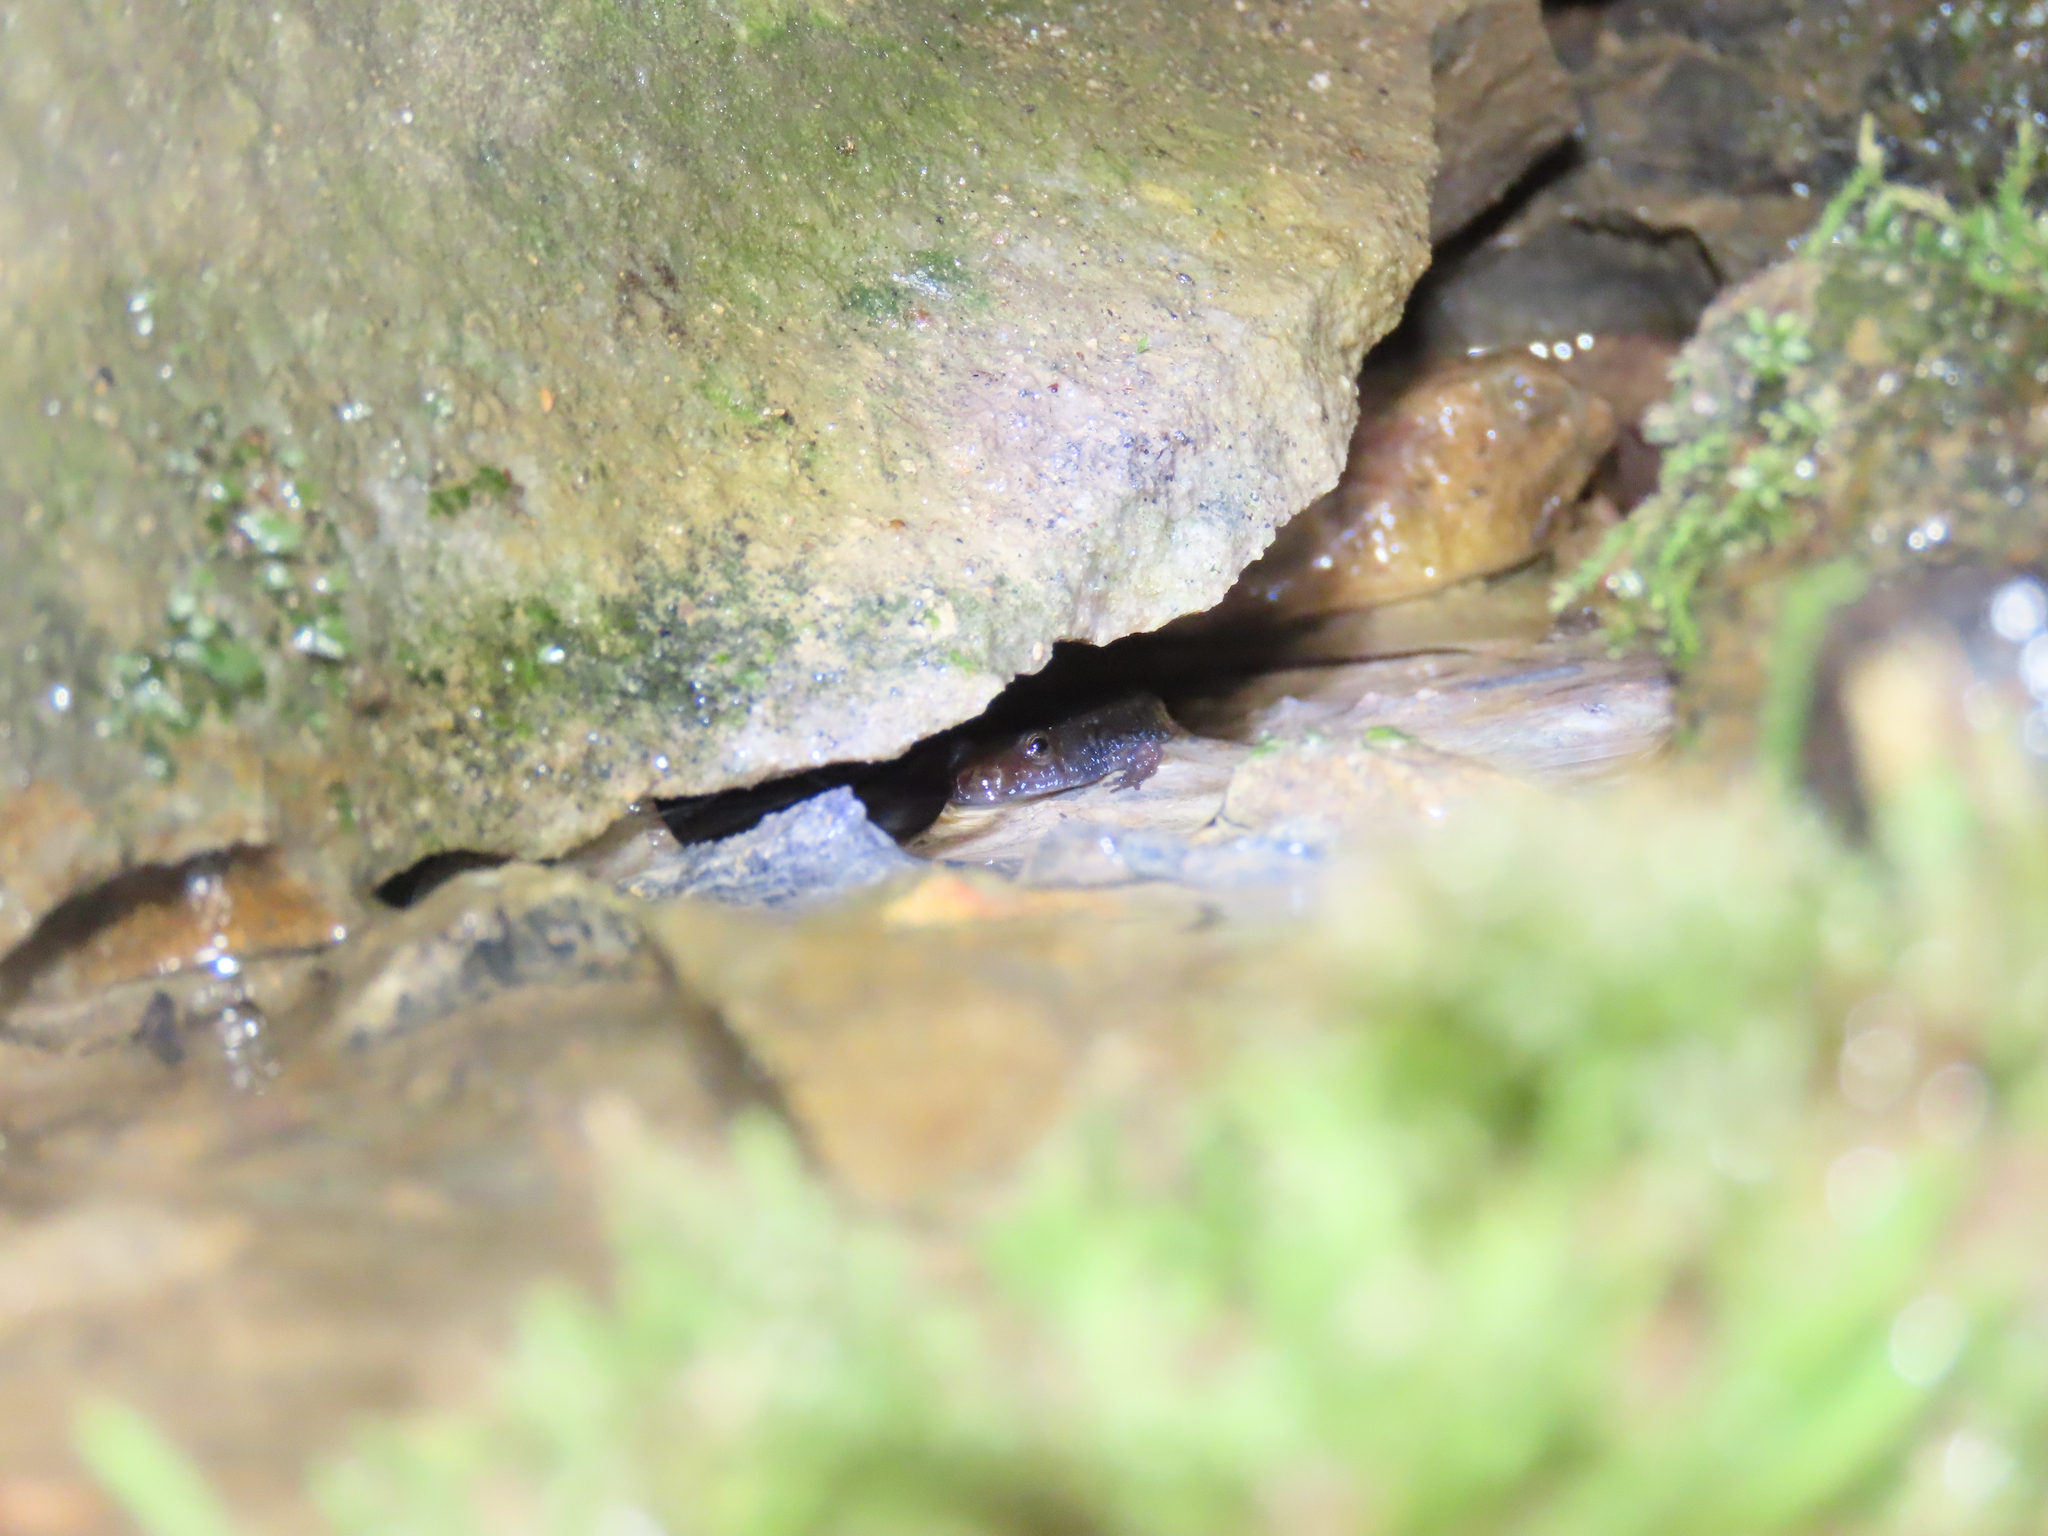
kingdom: Animalia
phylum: Chordata
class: Amphibia
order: Caudata
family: Plethodontidae
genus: Desmognathus
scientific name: Desmognathus ochrophaeus
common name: Allegheny mountain dusky salamander
